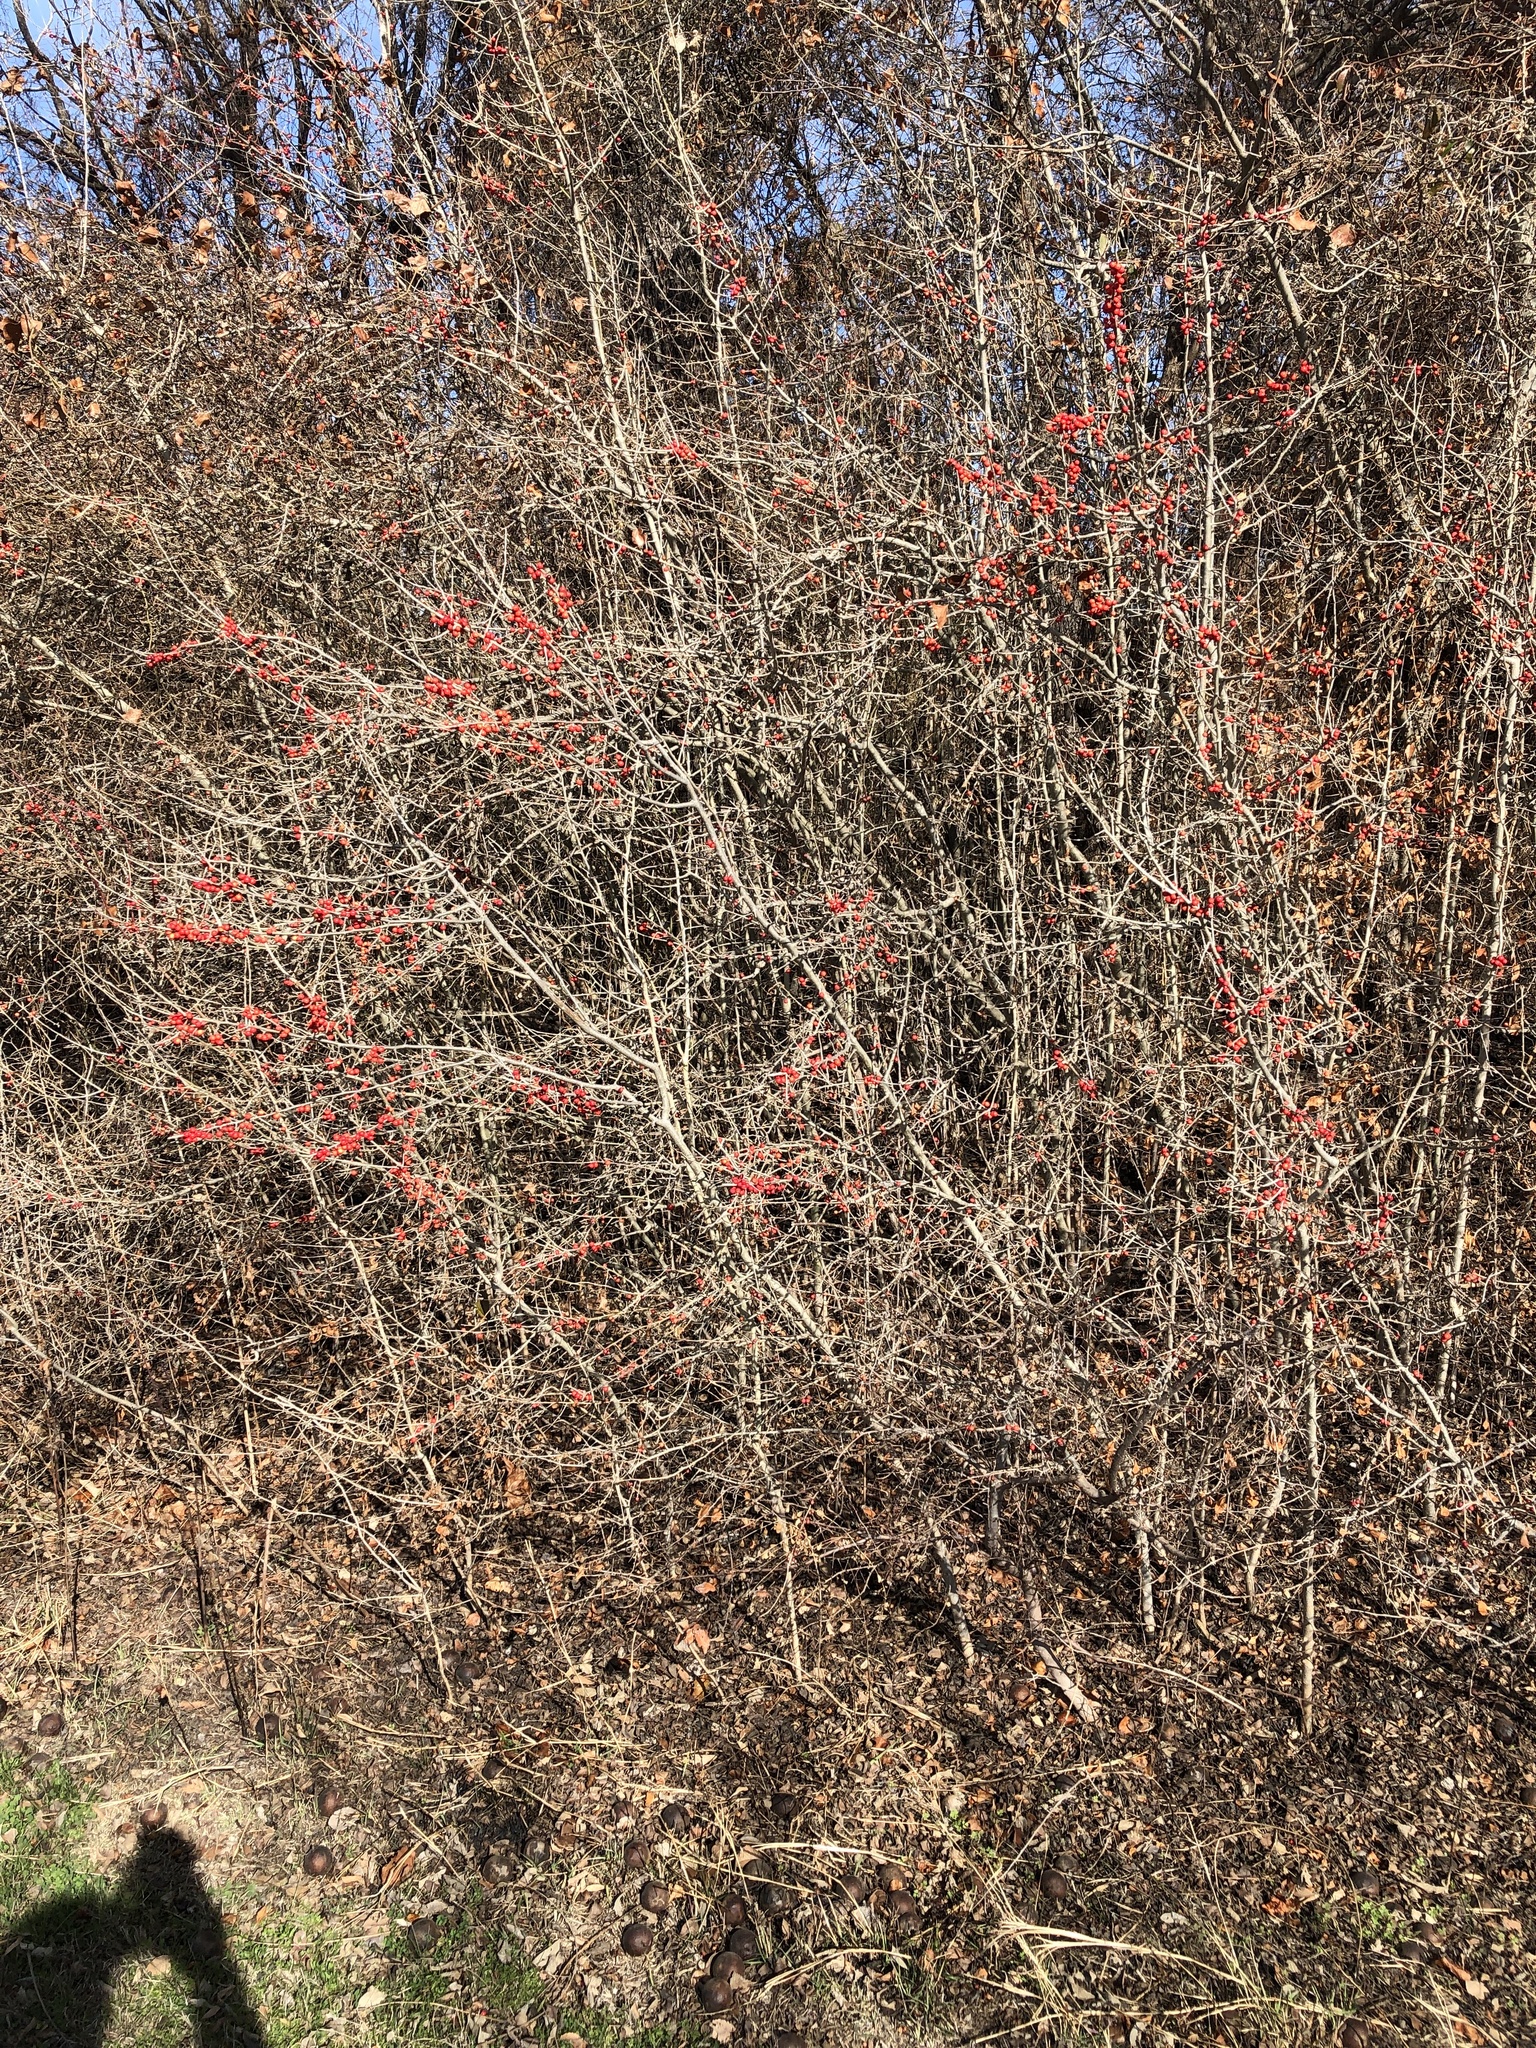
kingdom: Plantae
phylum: Tracheophyta
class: Magnoliopsida
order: Aquifoliales
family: Aquifoliaceae
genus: Ilex
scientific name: Ilex decidua
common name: Possum-haw
